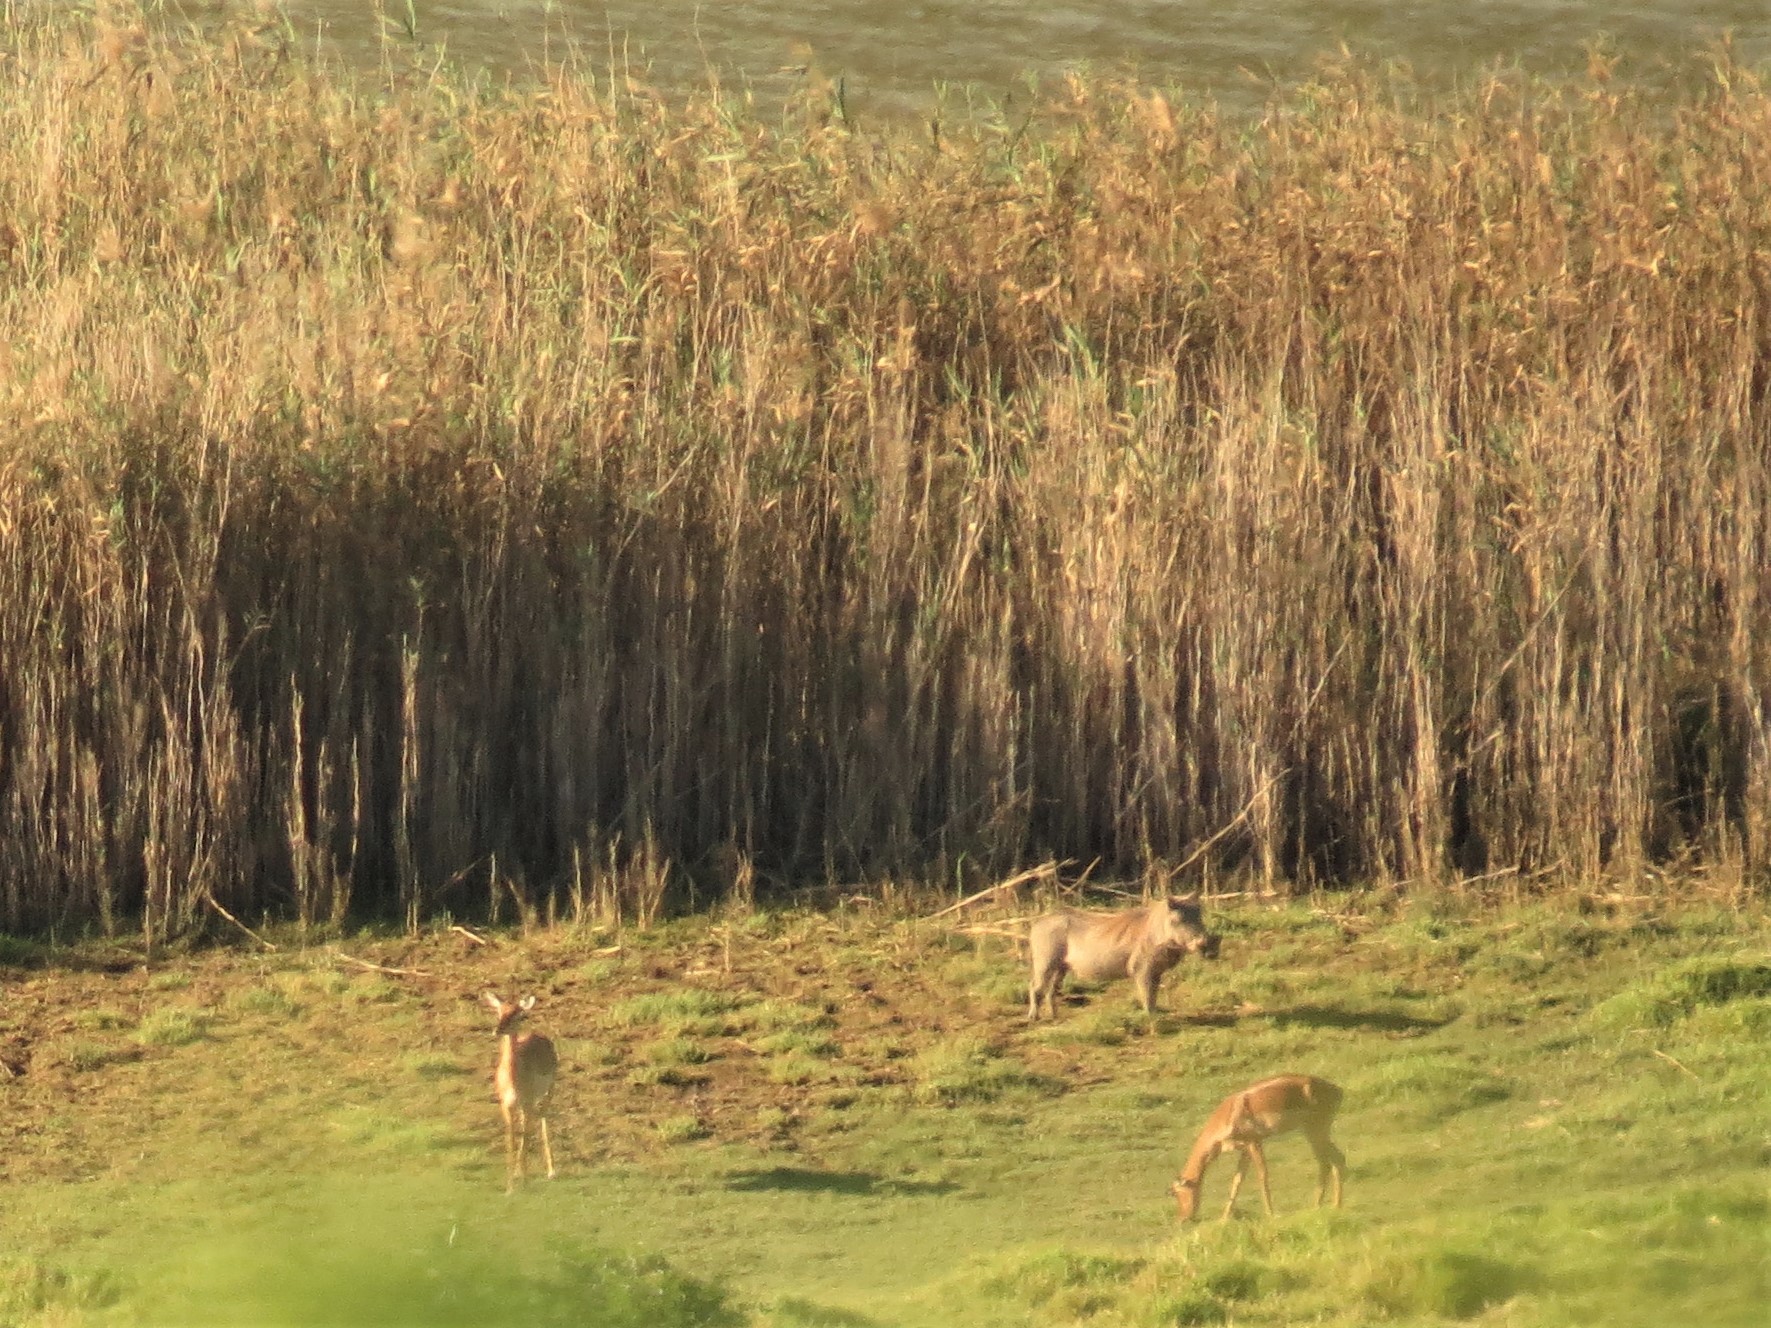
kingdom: Animalia
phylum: Chordata
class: Mammalia
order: Artiodactyla
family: Suidae
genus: Phacochoerus
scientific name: Phacochoerus africanus
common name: Common warthog
